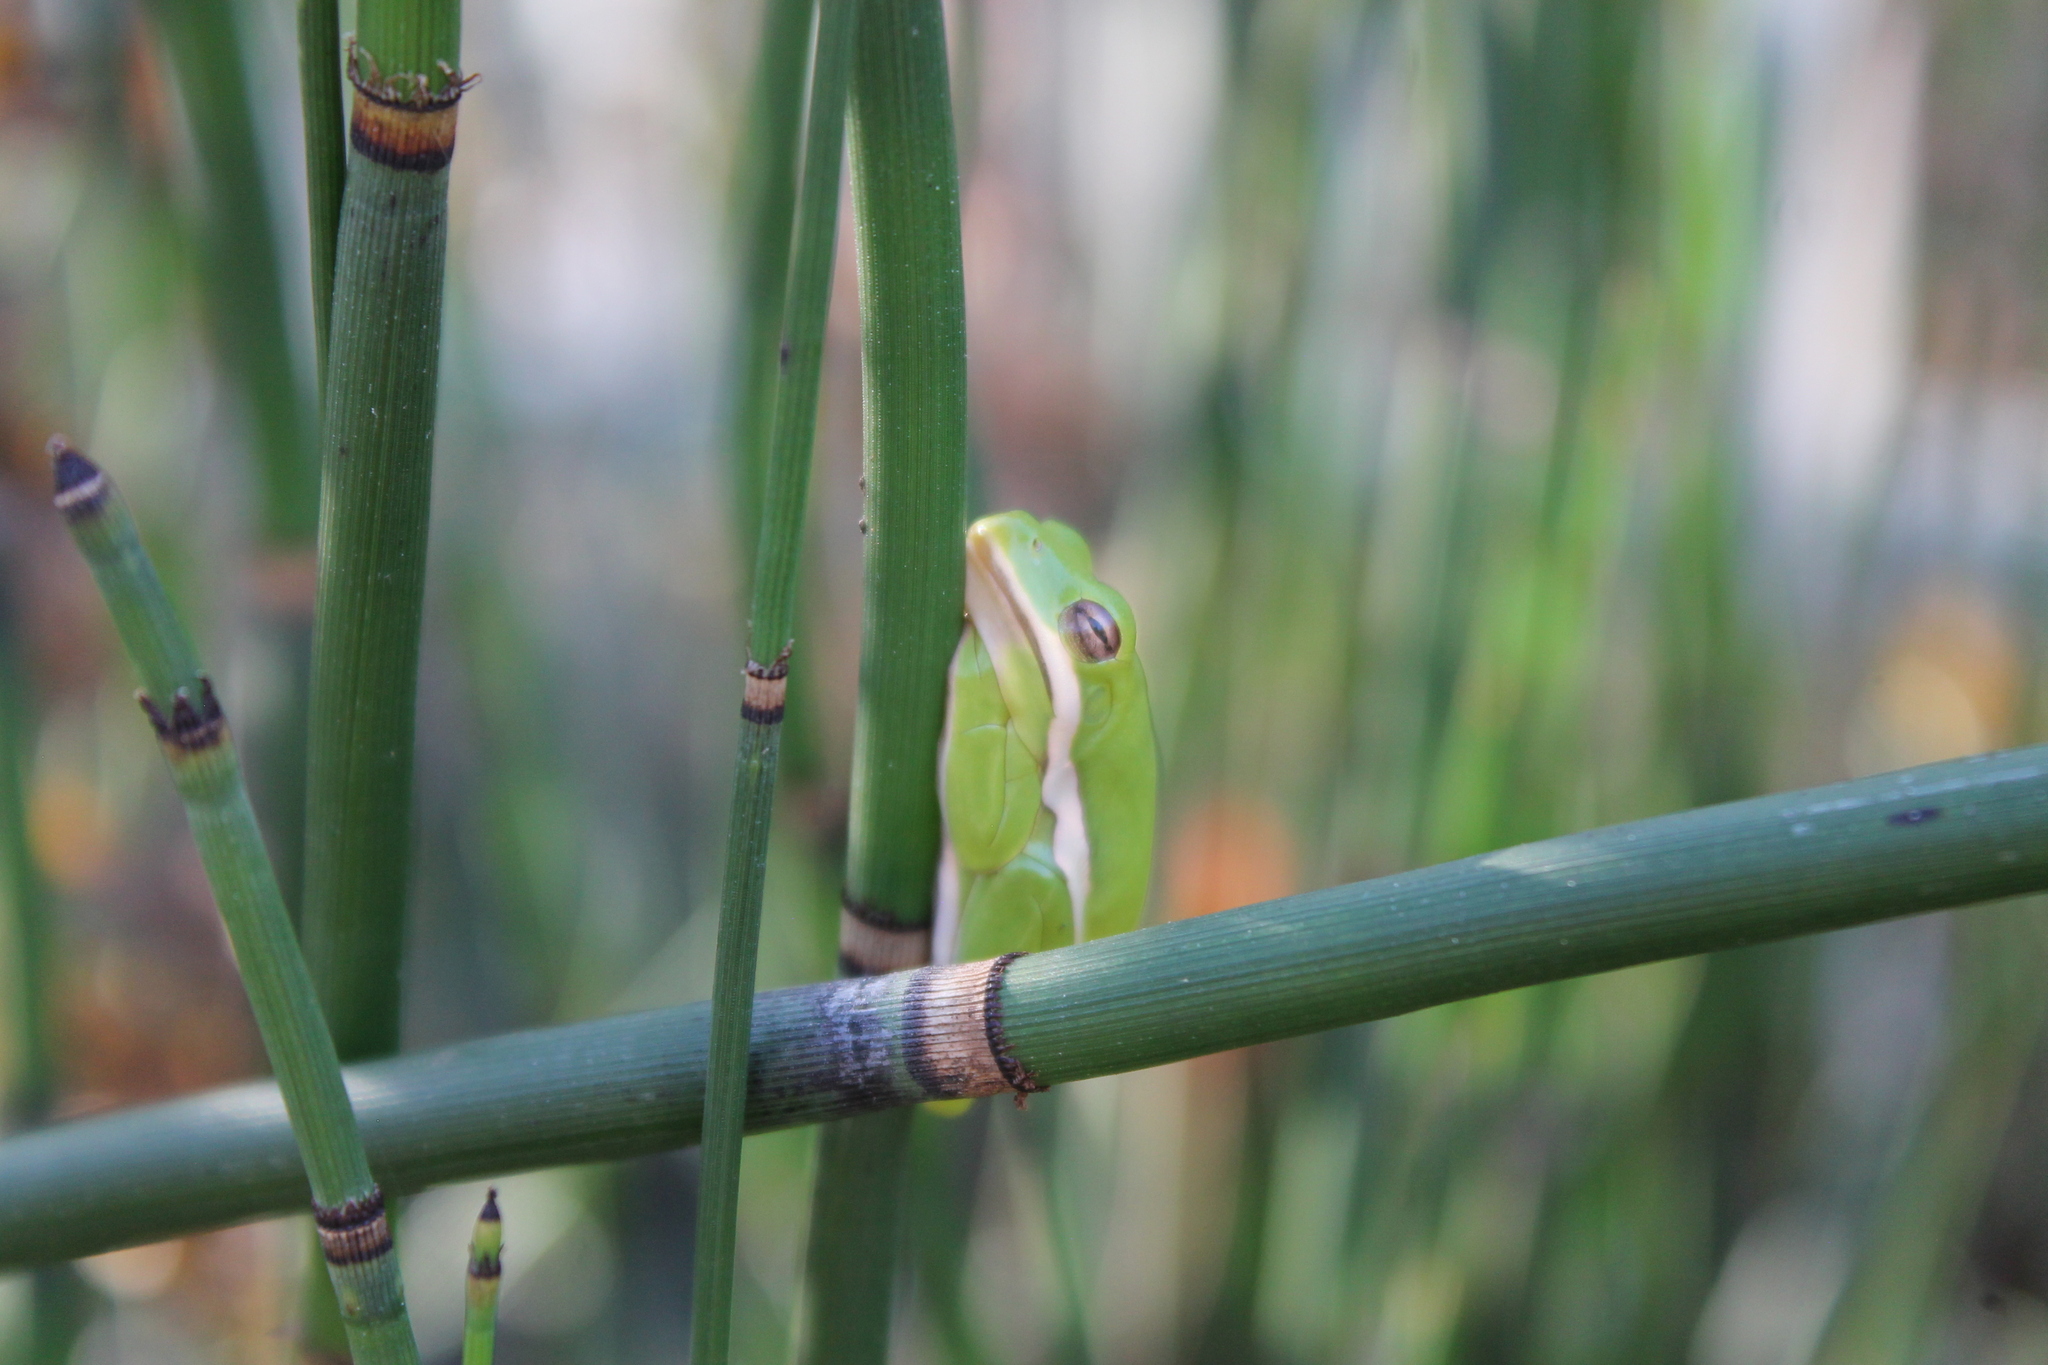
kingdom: Animalia
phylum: Chordata
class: Amphibia
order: Anura
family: Hylidae
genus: Dryophytes
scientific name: Dryophytes cinereus
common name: Green treefrog
